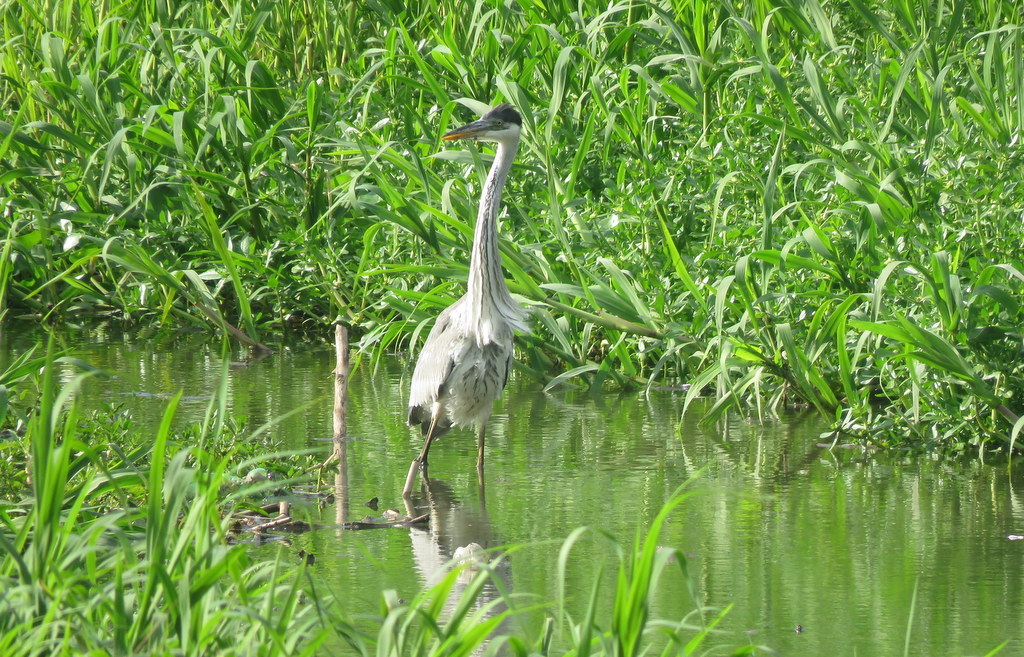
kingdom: Animalia
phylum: Chordata
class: Aves
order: Pelecaniformes
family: Ardeidae
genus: Ardea
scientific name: Ardea cocoi
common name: Cocoi heron
